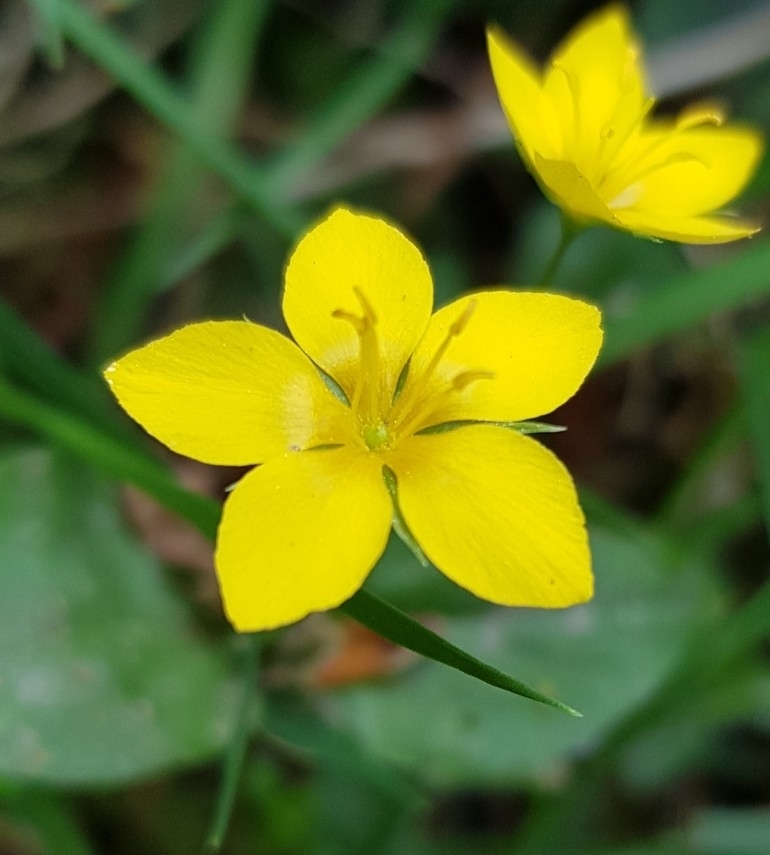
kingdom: Plantae
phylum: Tracheophyta
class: Magnoliopsida
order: Ericales
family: Primulaceae
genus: Lysimachia
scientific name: Lysimachia nemorum
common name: Yellow pimpernel
